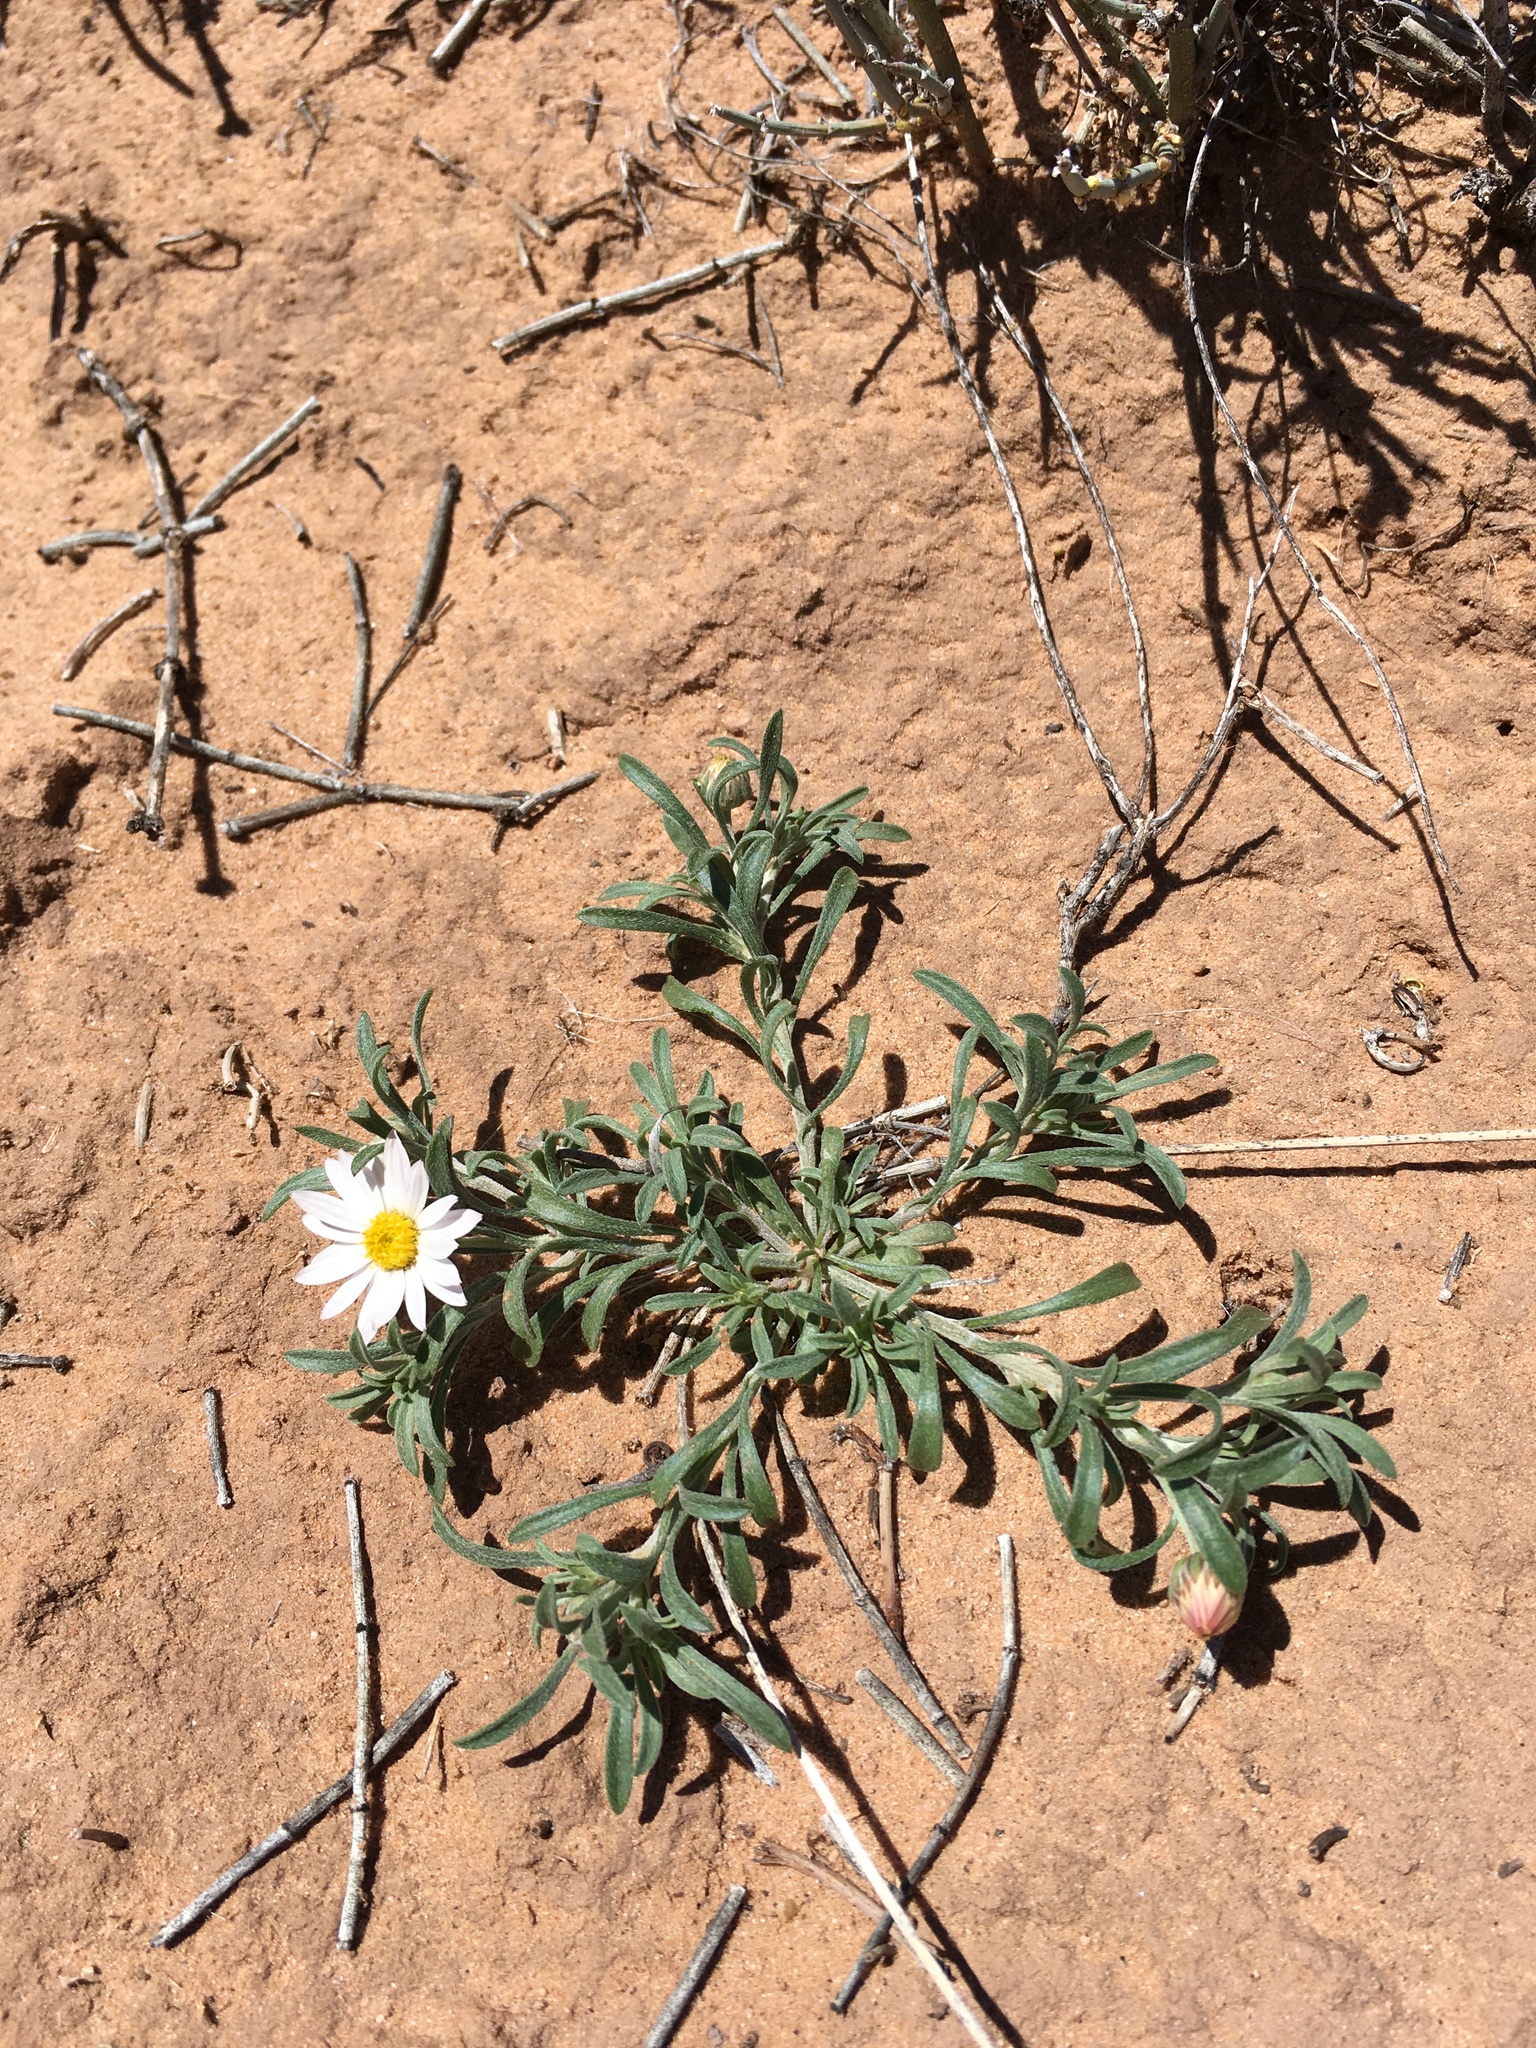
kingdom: Plantae
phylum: Tracheophyta
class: Magnoliopsida
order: Asterales
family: Asteraceae
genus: Townsendia
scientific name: Townsendia annua
